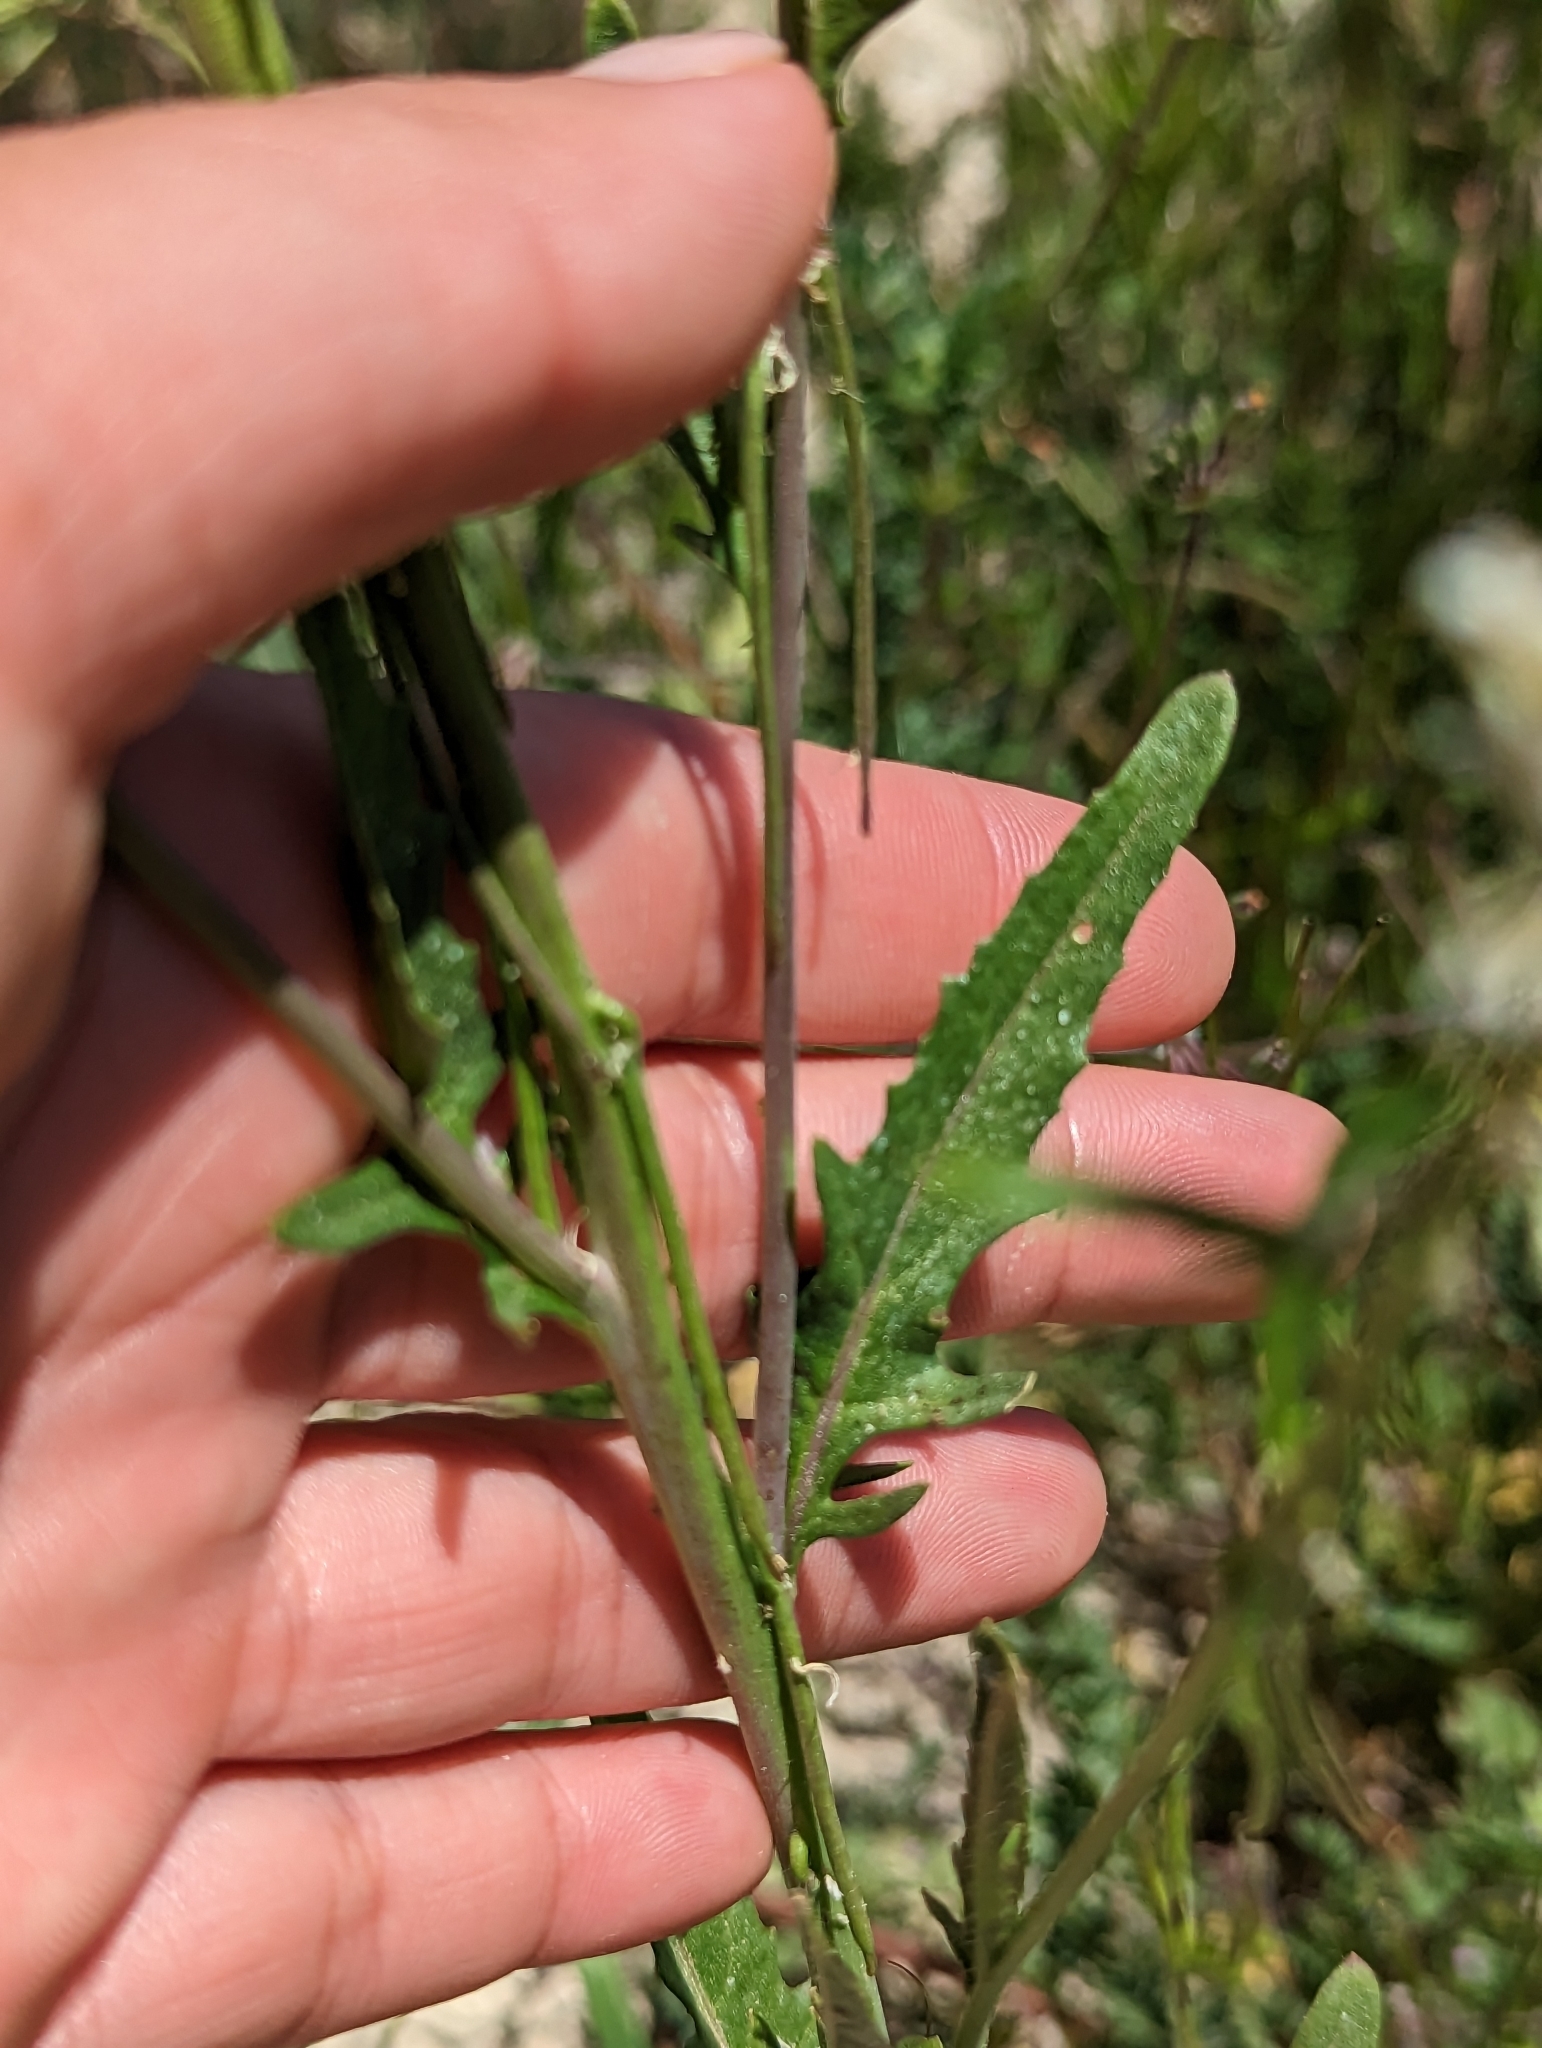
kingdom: Plantae
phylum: Tracheophyta
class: Magnoliopsida
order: Brassicales
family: Brassicaceae
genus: Streptanthus
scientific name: Streptanthus lasiophyllus
